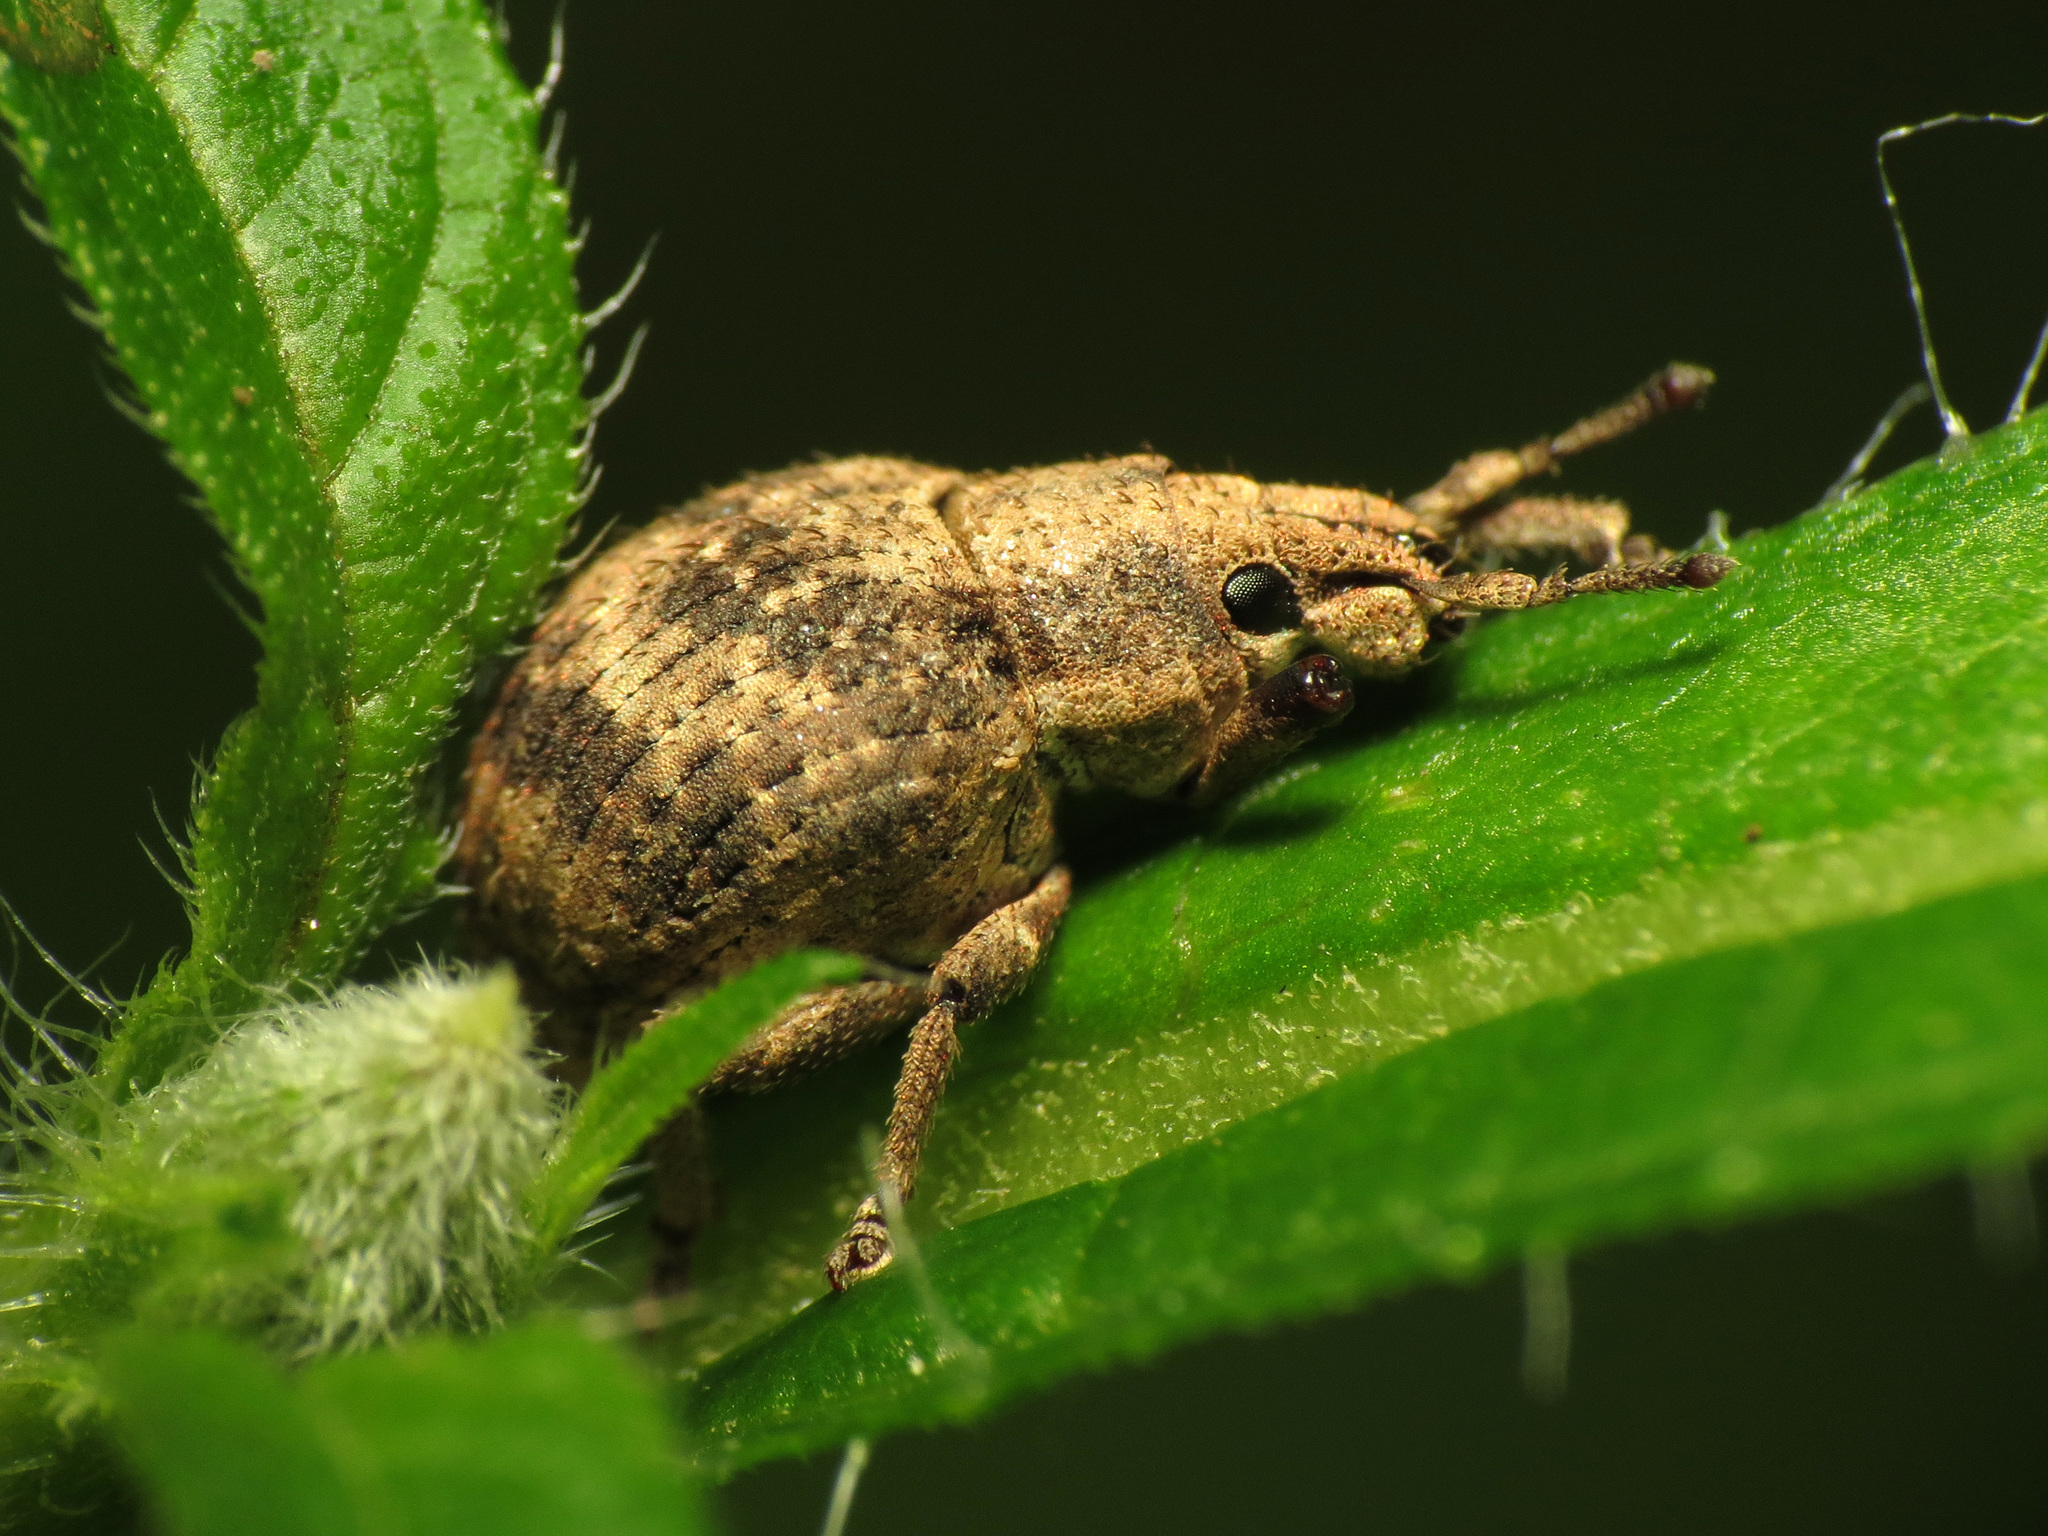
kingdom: Animalia
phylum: Arthropoda
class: Insecta
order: Coleoptera
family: Curculionidae
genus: Pseudocneorhinus
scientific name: Pseudocneorhinus bifasciatus
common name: Two-banded japanese weevil
